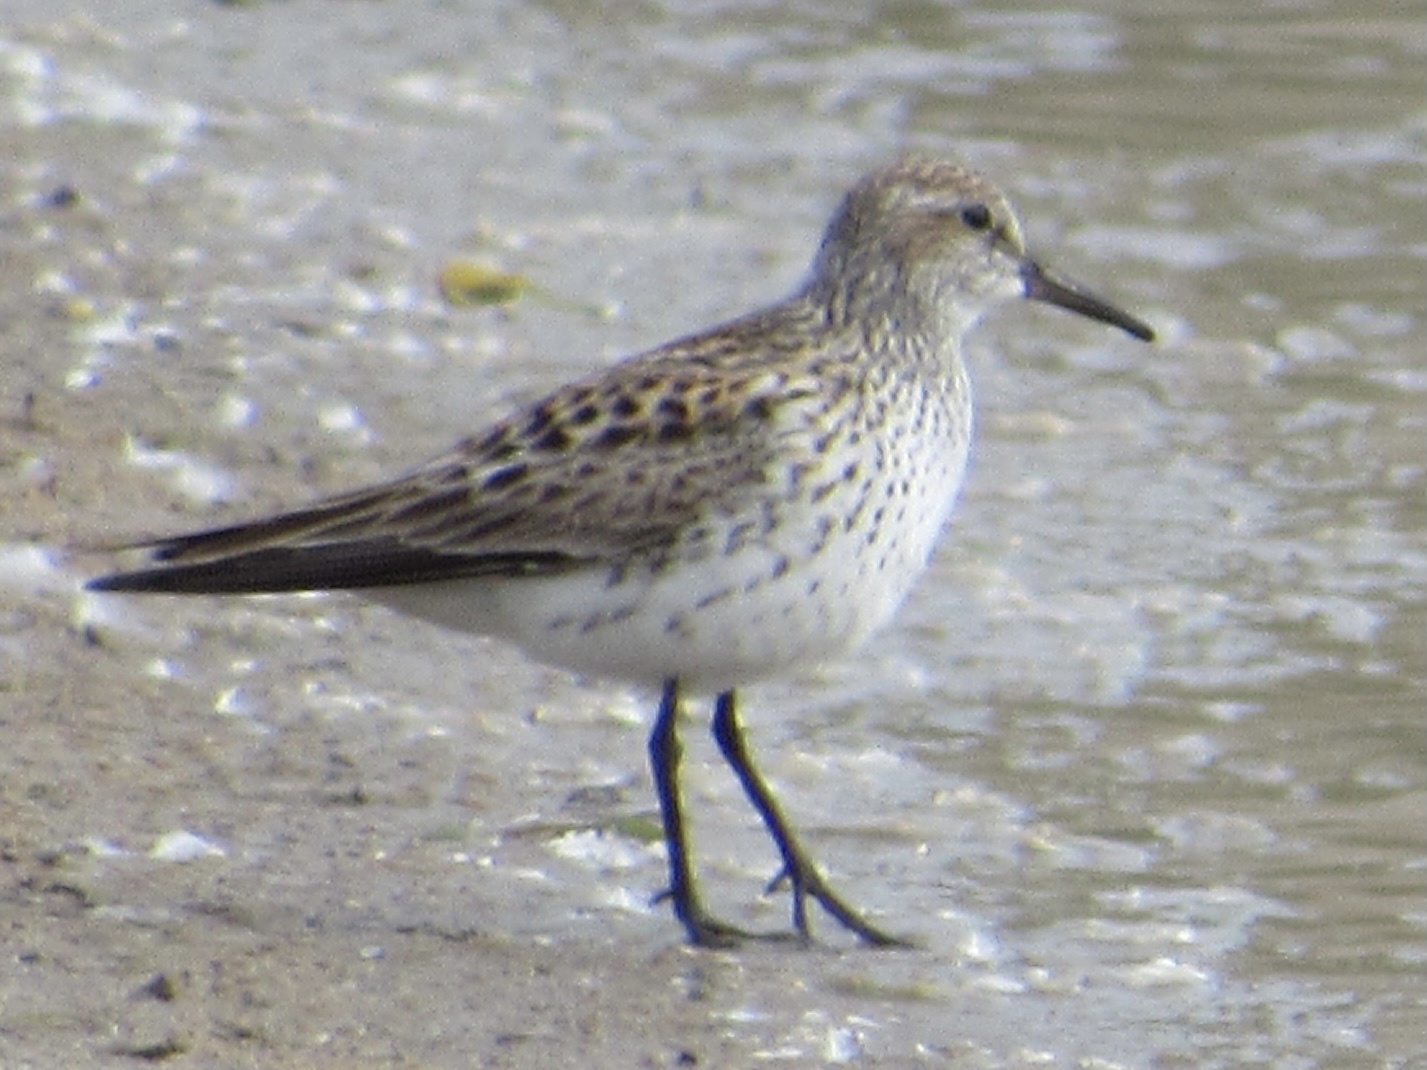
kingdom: Animalia
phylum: Chordata
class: Aves
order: Charadriiformes
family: Scolopacidae
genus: Calidris
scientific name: Calidris fuscicollis
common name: White-rumped sandpiper
